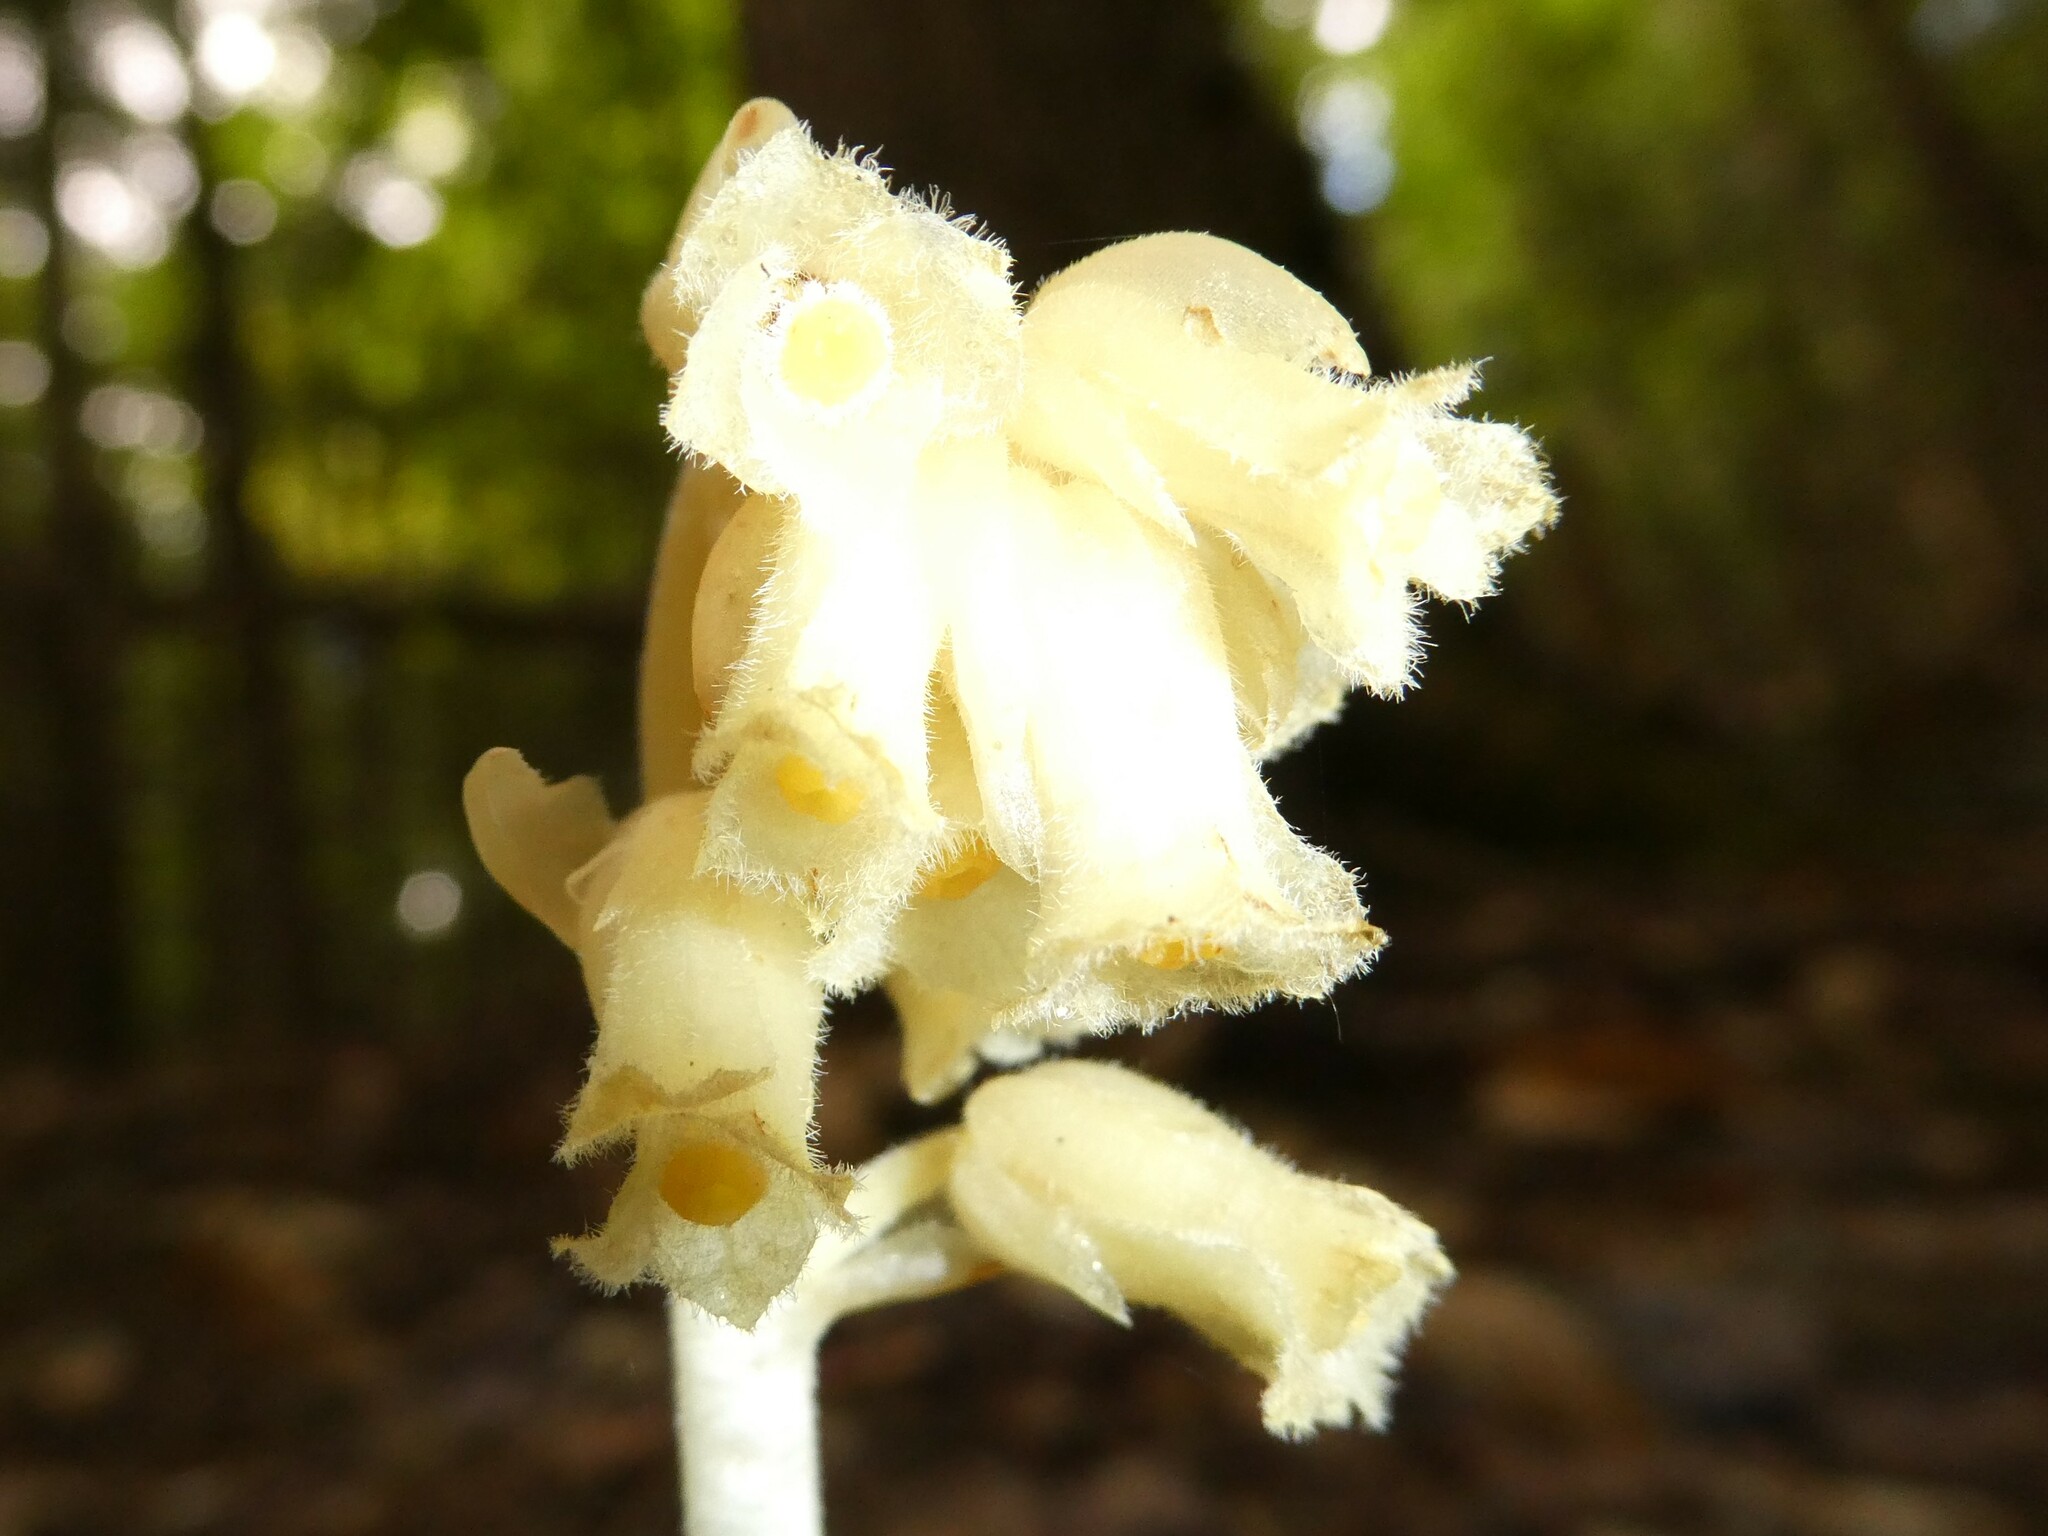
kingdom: Plantae
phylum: Tracheophyta
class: Magnoliopsida
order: Ericales
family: Ericaceae
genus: Hypopitys
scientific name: Hypopitys monotropa
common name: Yellow bird's-nest
